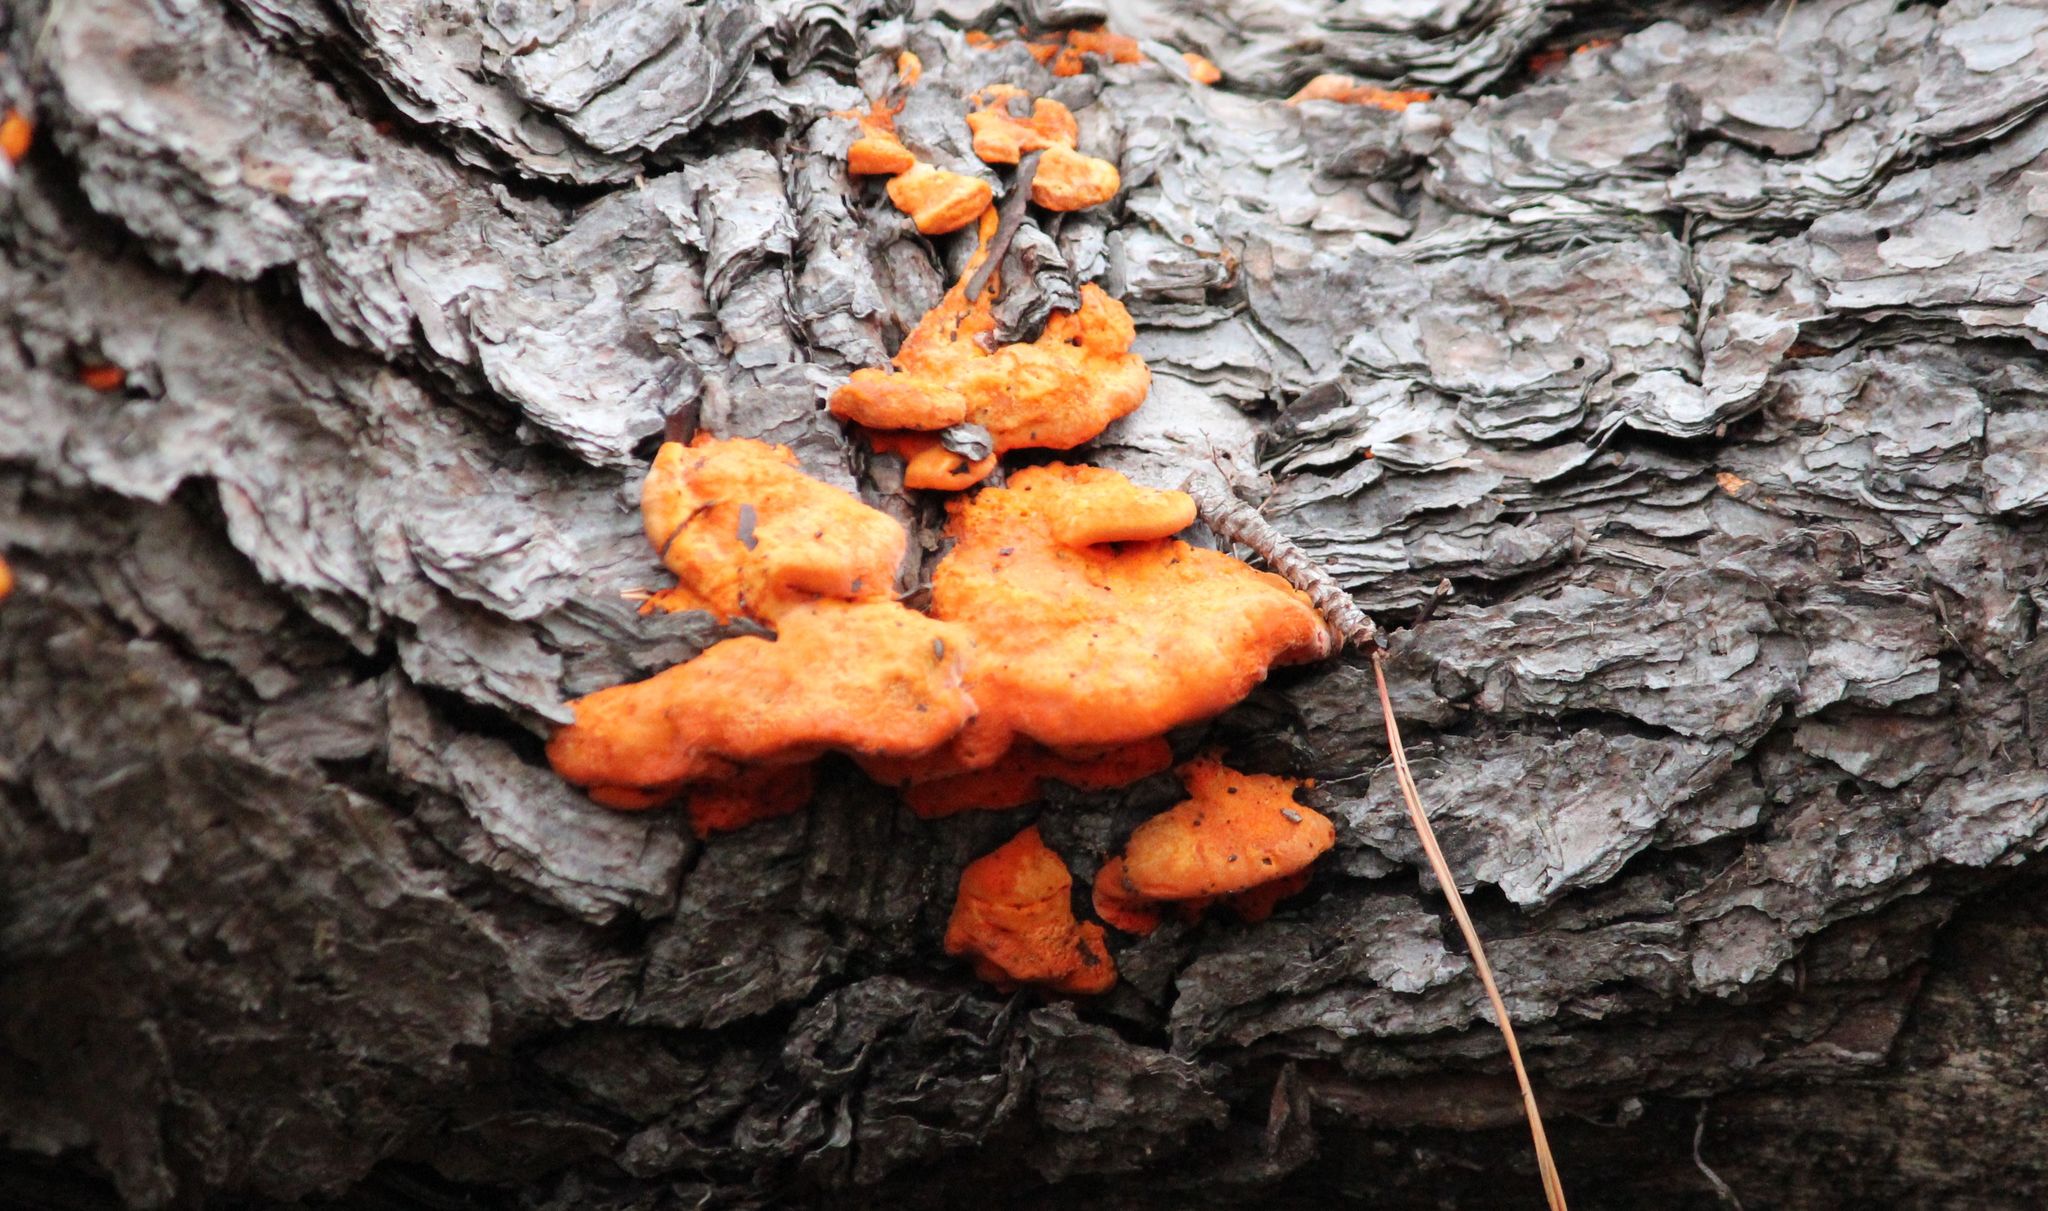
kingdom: Fungi
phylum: Basidiomycota
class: Agaricomycetes
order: Polyporales
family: Polyporaceae
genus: Trametes
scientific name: Trametes coccinea
